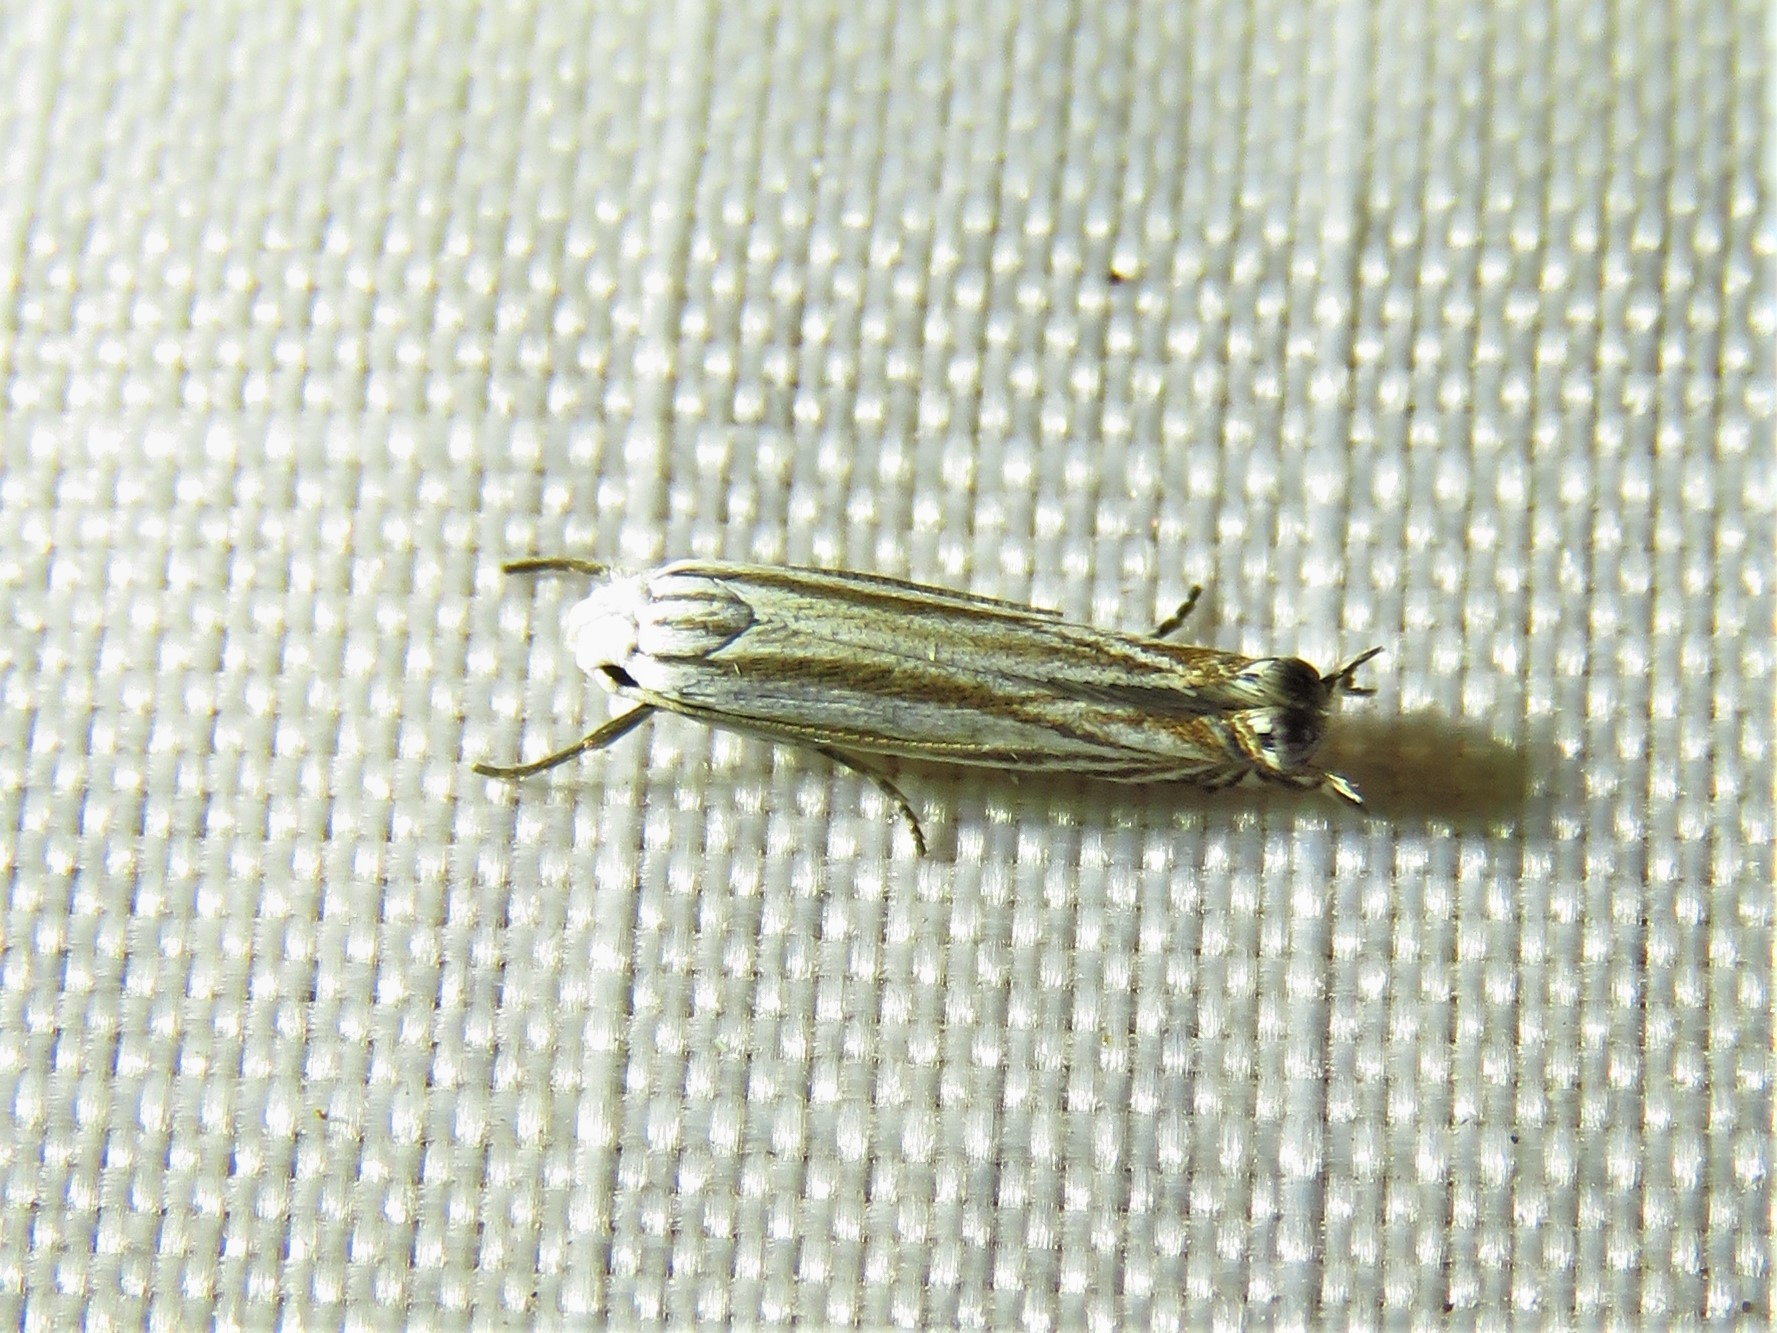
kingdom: Animalia
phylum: Arthropoda
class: Insecta
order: Lepidoptera
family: Gelechiidae
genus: Polyhymno
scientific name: Polyhymno luteostrigella
